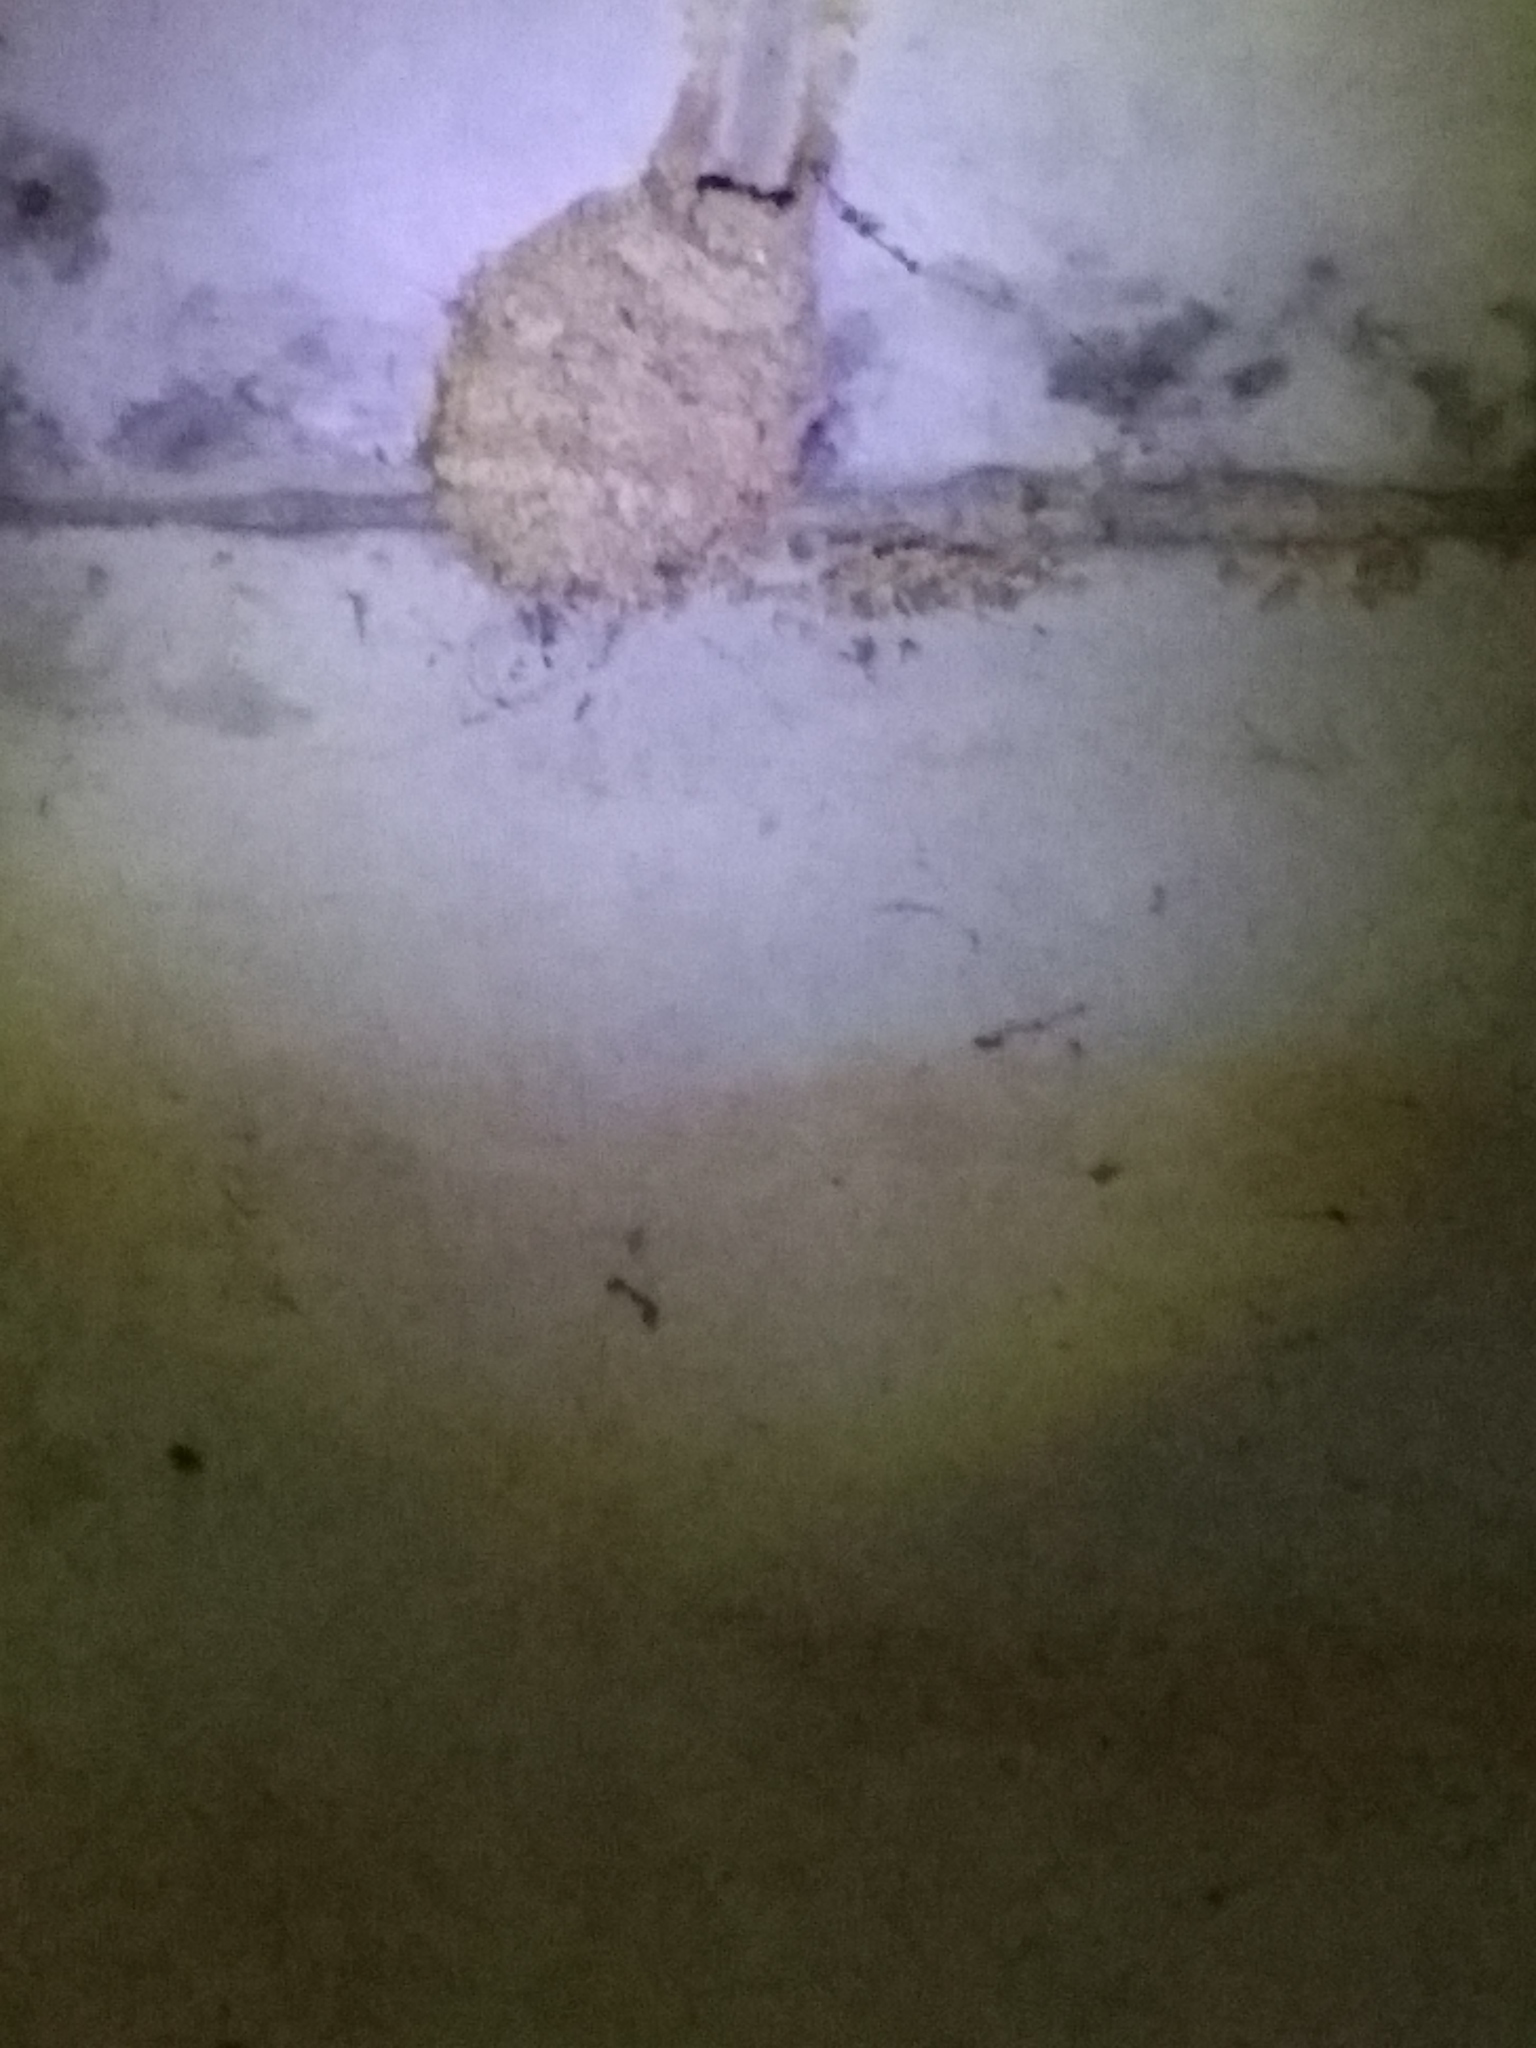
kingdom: Animalia
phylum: Chordata
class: Aves
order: Passeriformes
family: Hirundinidae
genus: Cecropis
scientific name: Cecropis daurica
